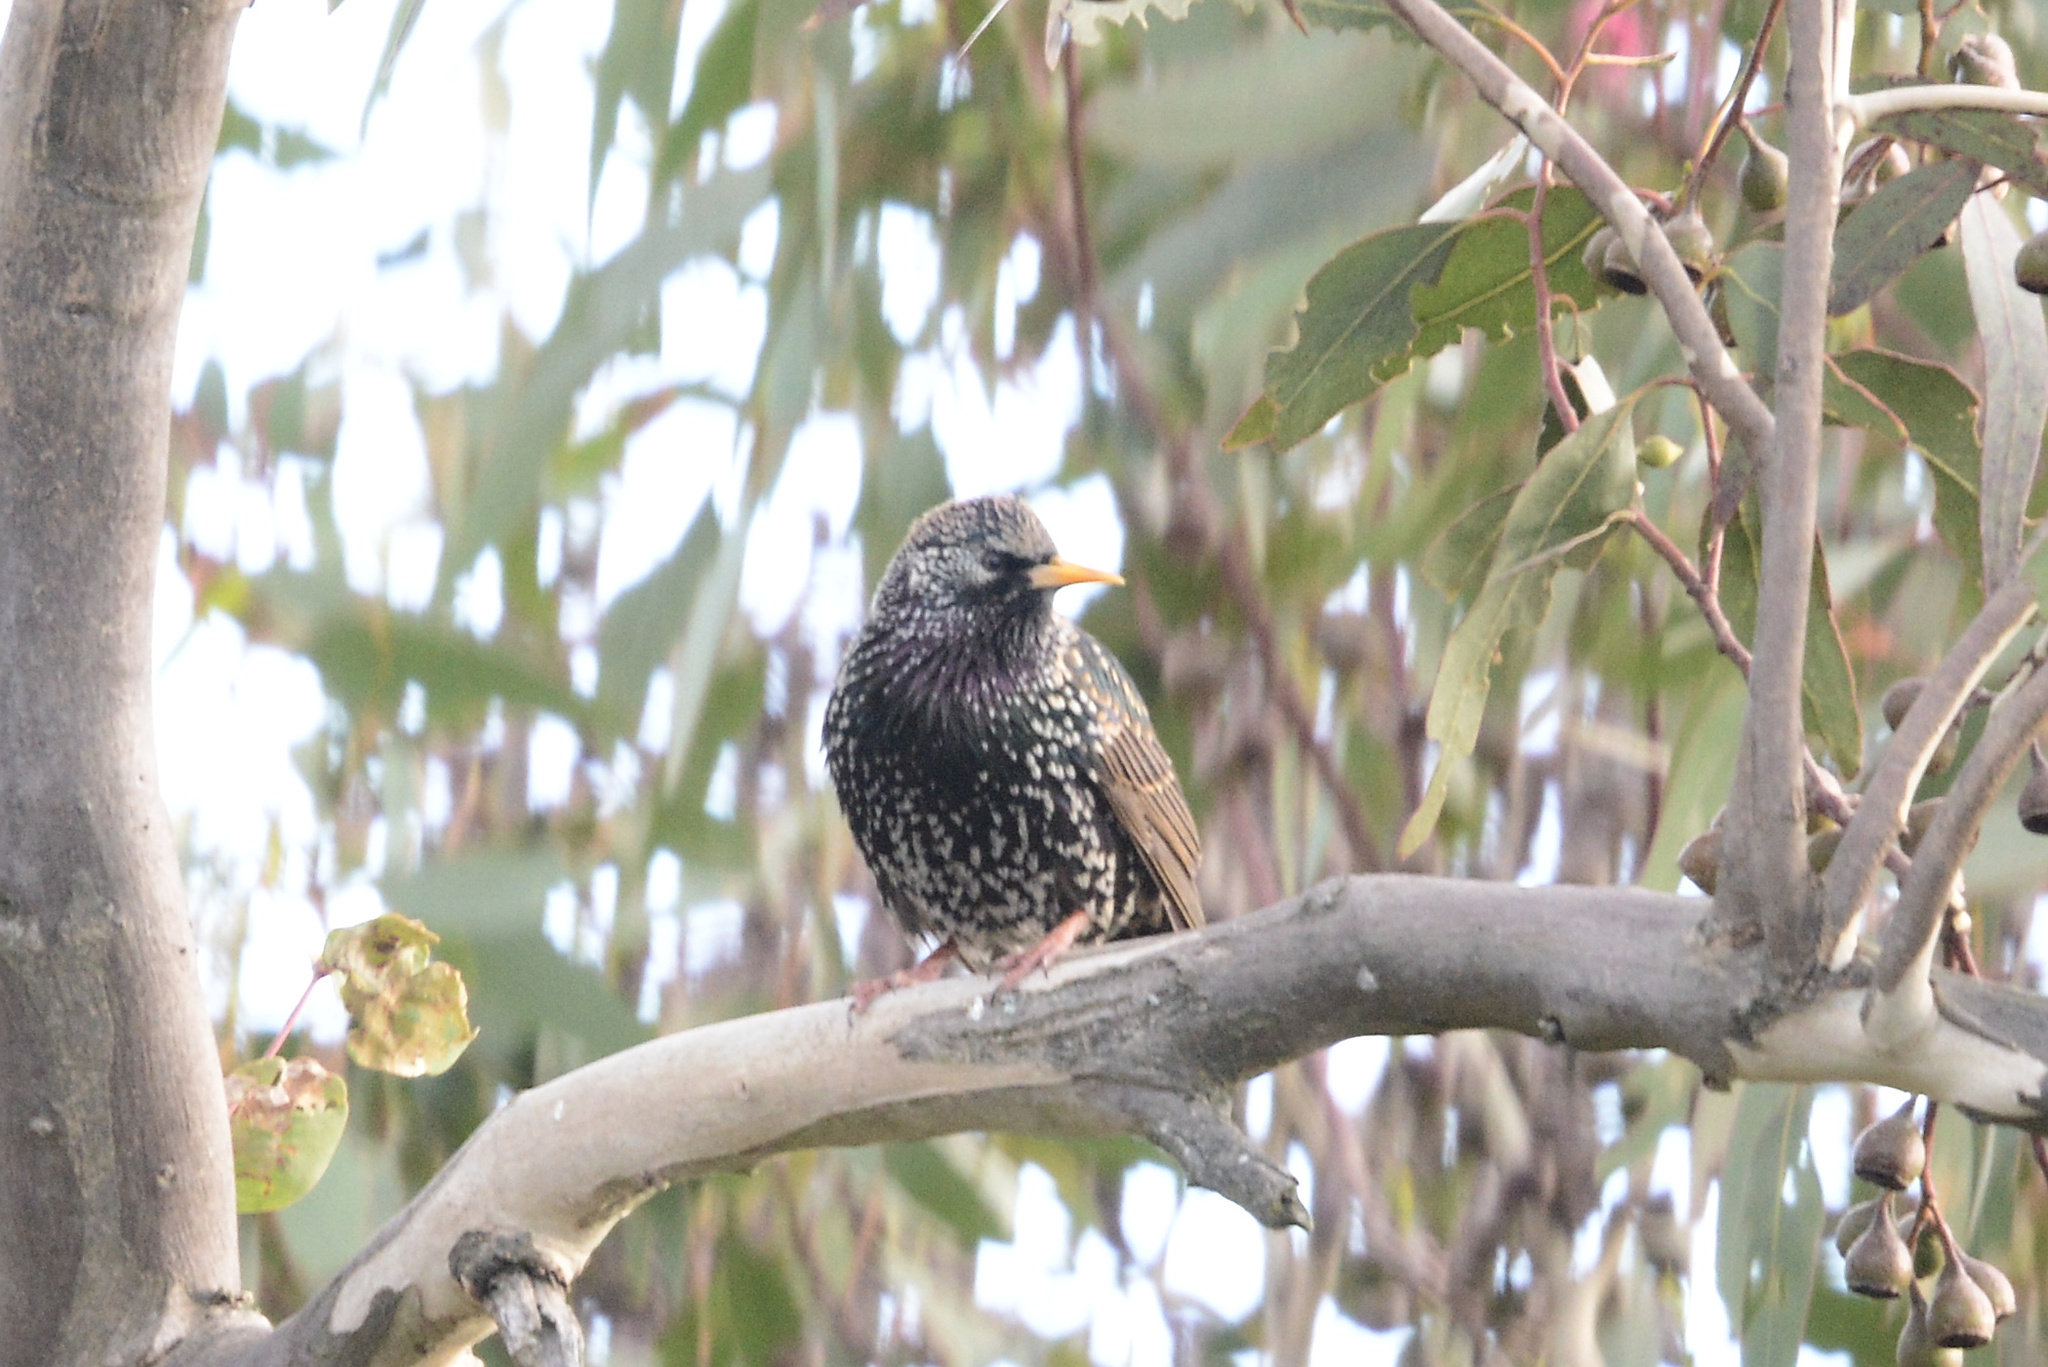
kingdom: Animalia
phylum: Chordata
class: Aves
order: Passeriformes
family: Sturnidae
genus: Sturnus
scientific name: Sturnus vulgaris
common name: Common starling
